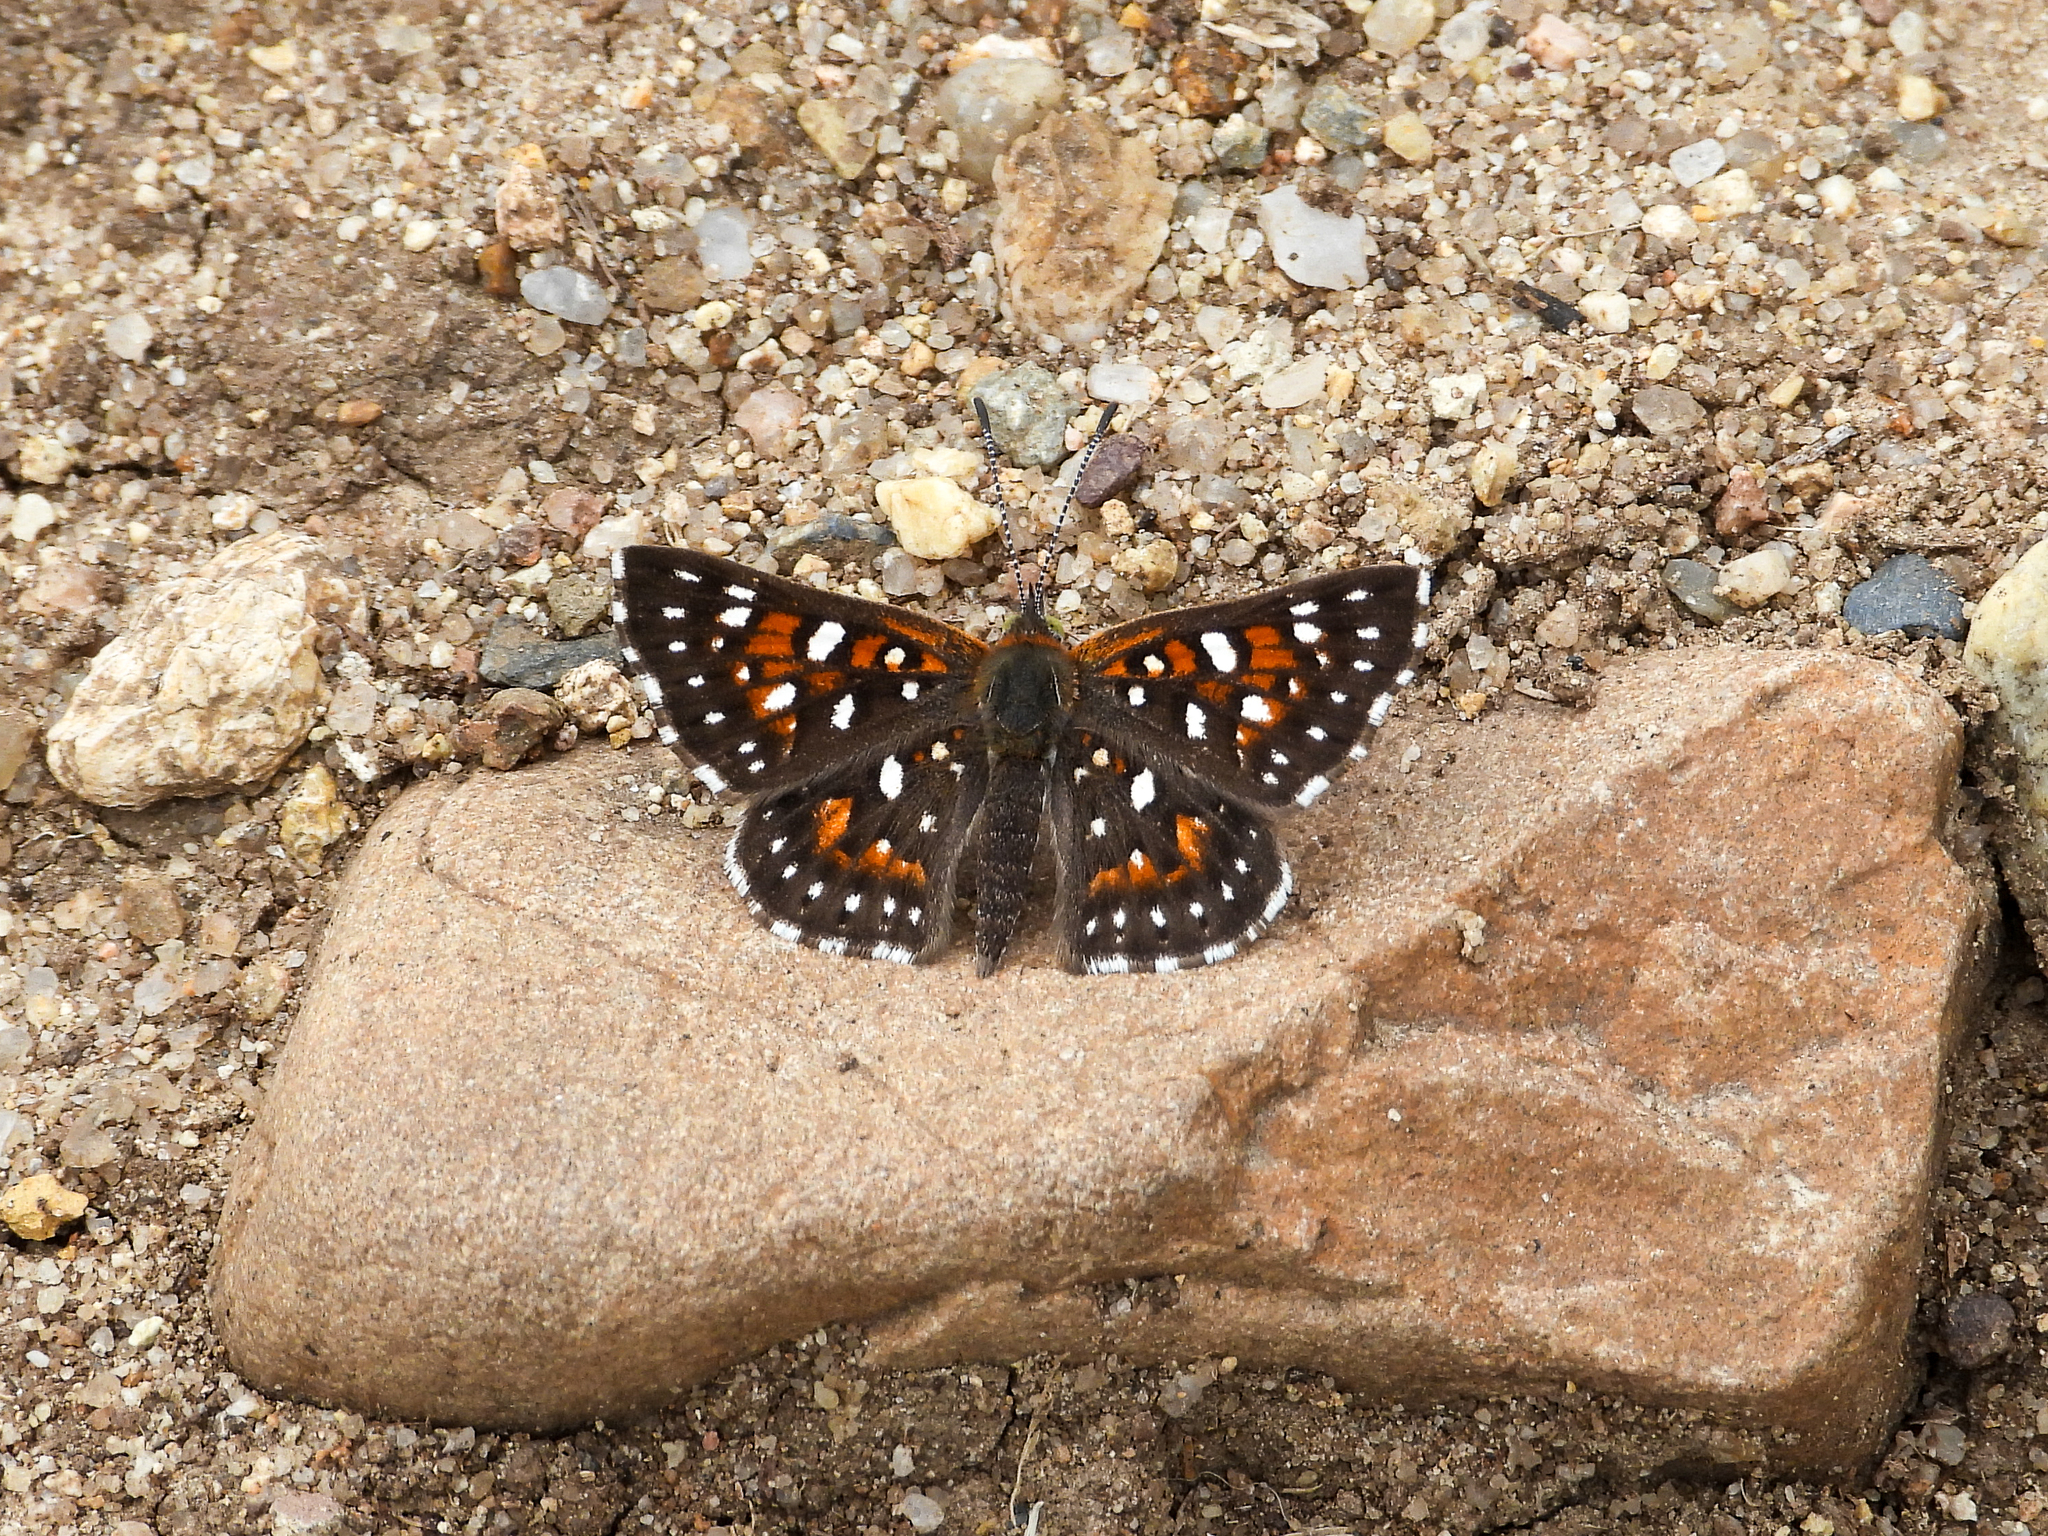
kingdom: Animalia
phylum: Arthropoda
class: Insecta
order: Lepidoptera
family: Riodinidae
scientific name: Riodinidae
